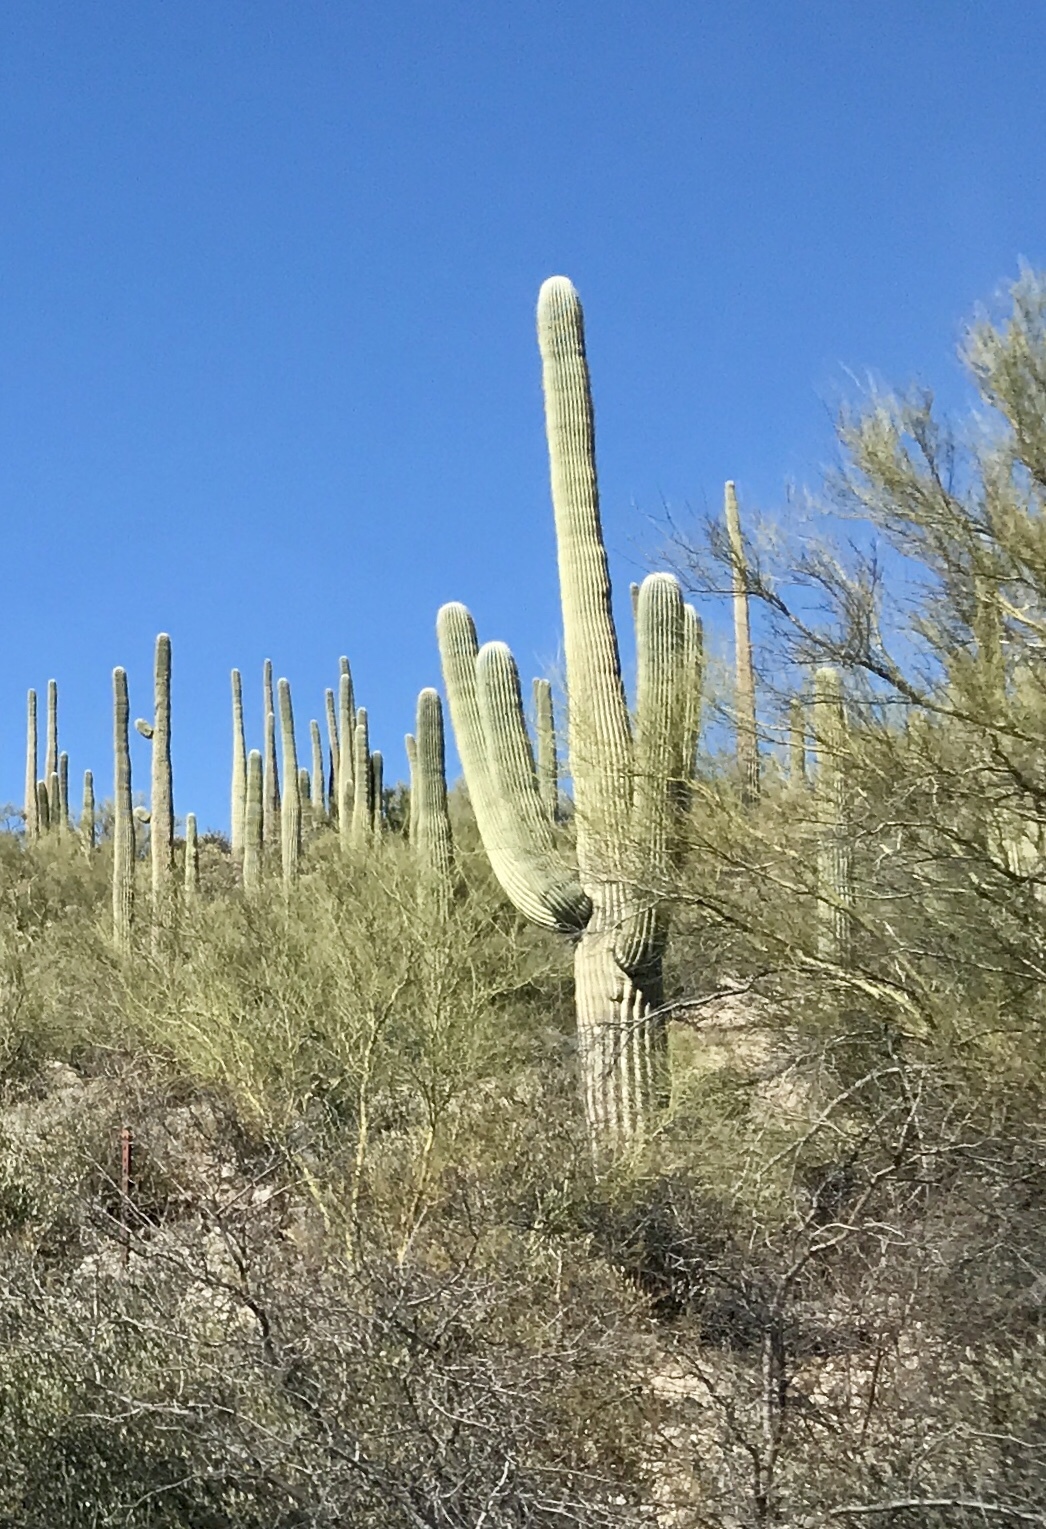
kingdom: Plantae
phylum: Tracheophyta
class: Magnoliopsida
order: Caryophyllales
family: Cactaceae
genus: Carnegiea
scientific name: Carnegiea gigantea
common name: Saguaro
